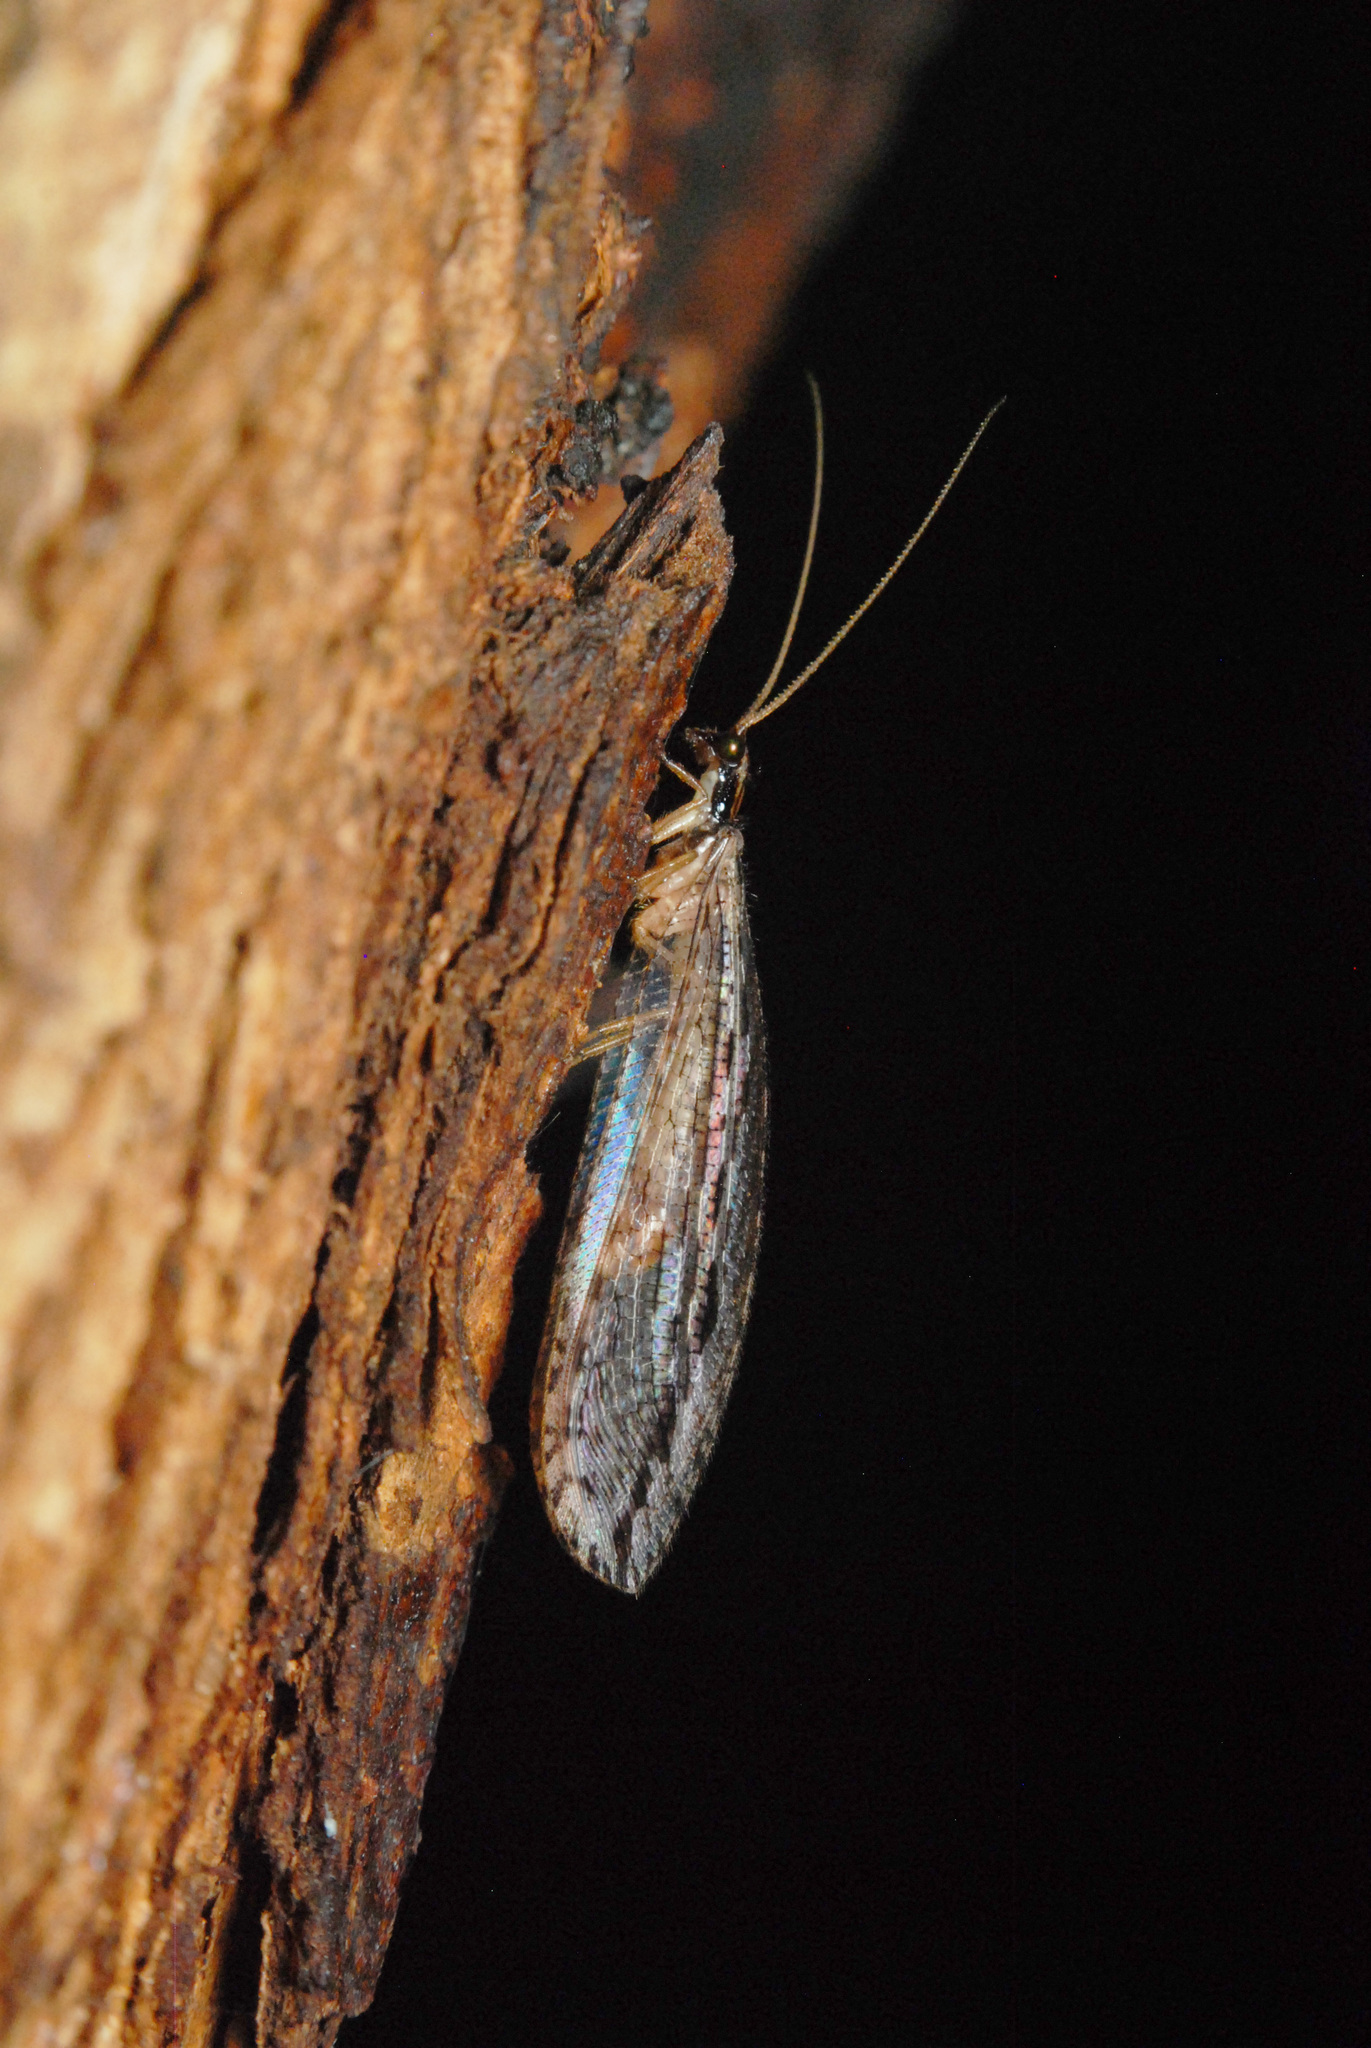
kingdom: Animalia
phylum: Arthropoda
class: Insecta
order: Neuroptera
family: Osmylidae
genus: Stenosmylus
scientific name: Stenosmylus stenopterus
